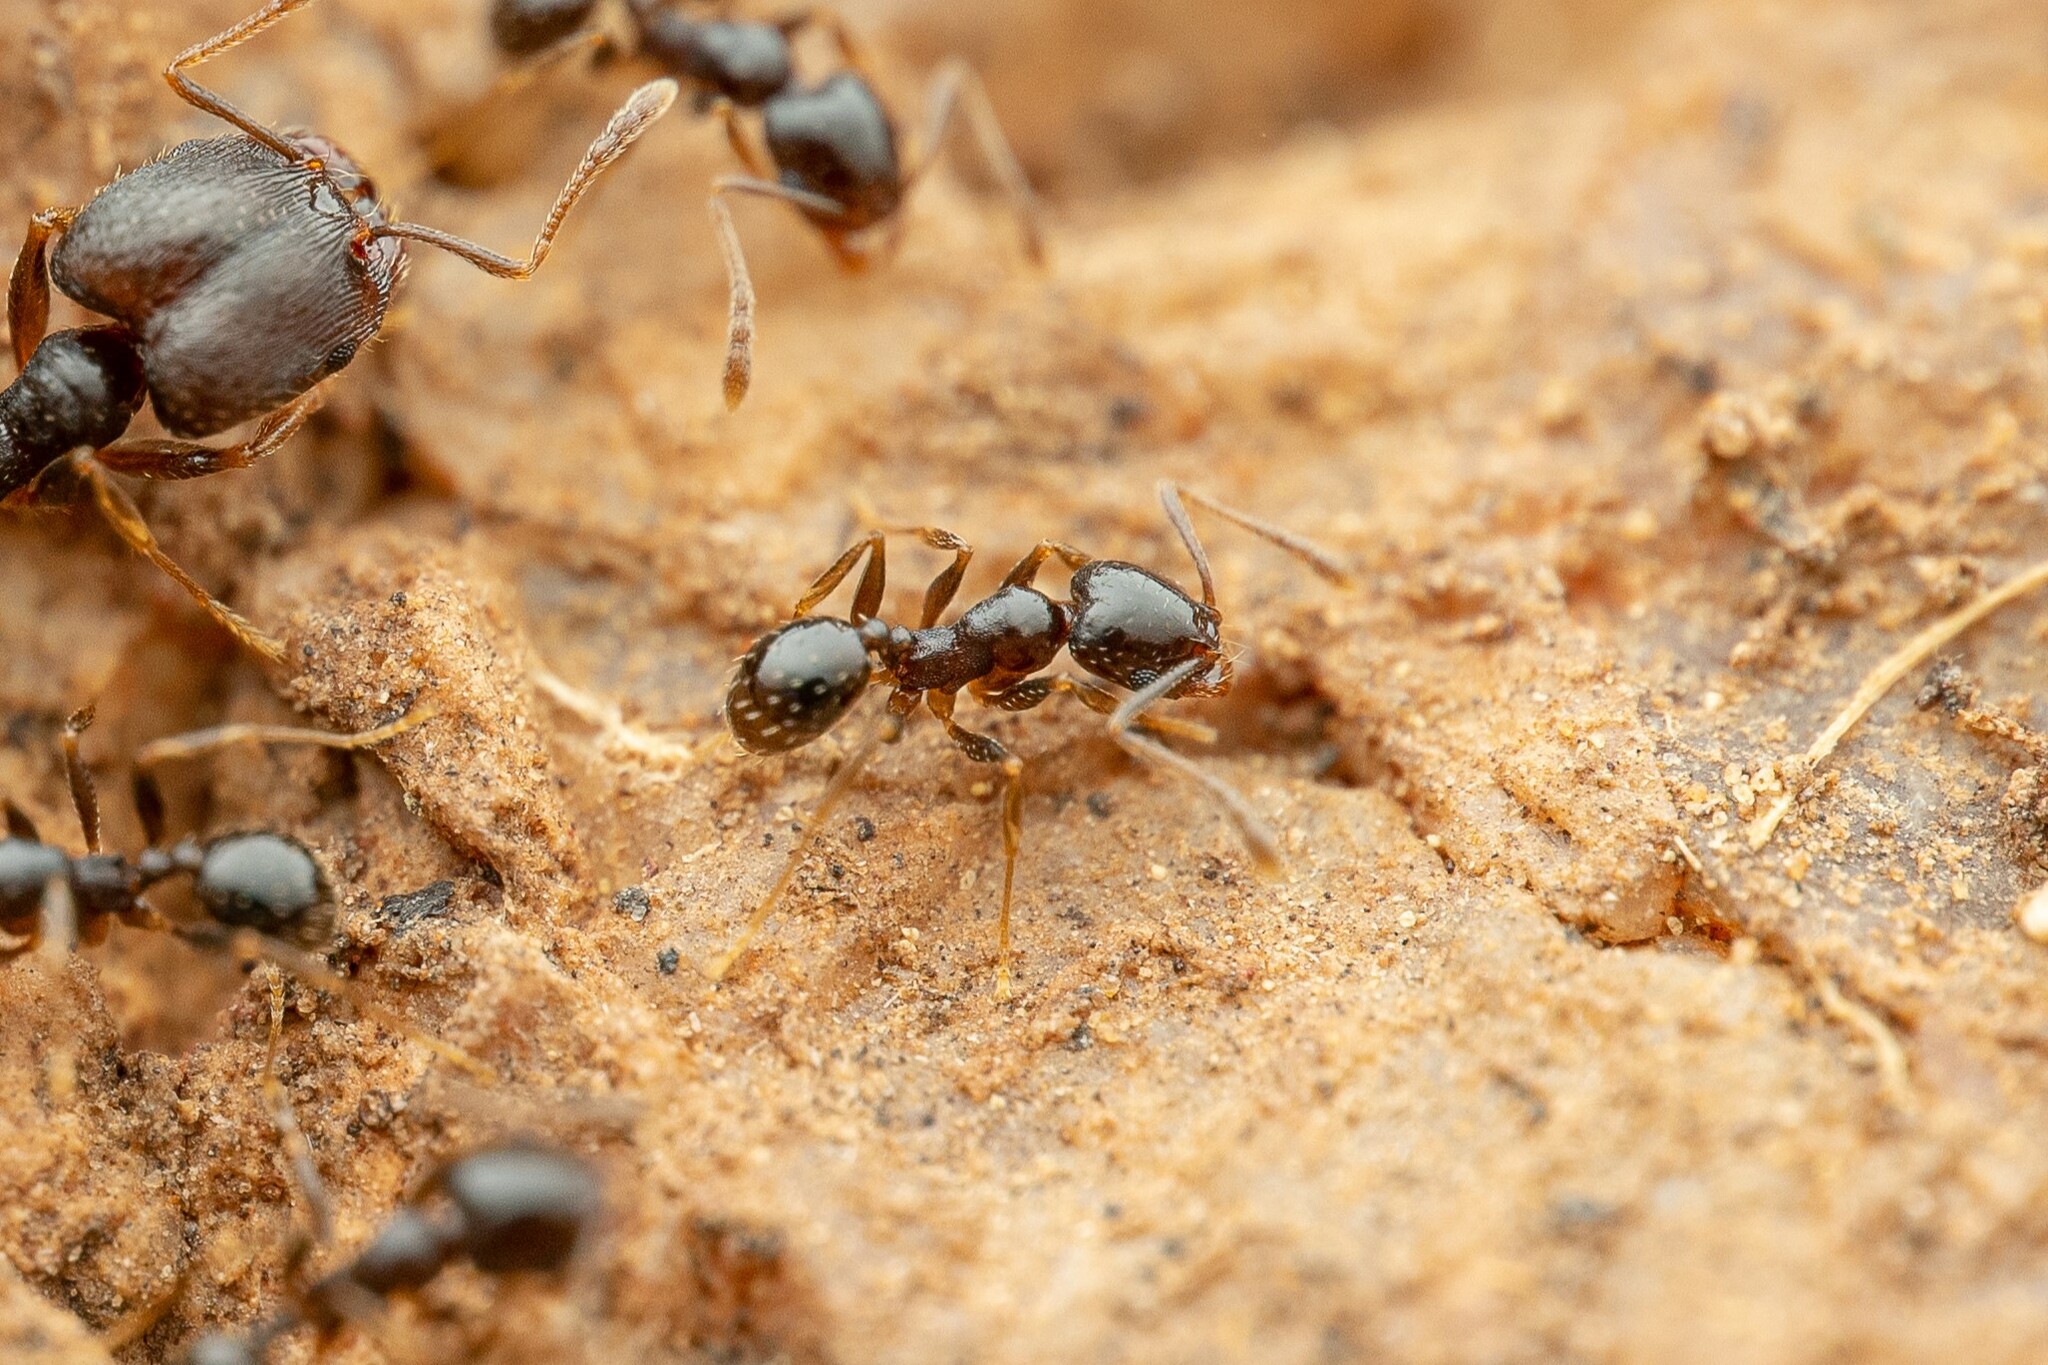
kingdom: Animalia
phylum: Arthropoda
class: Insecta
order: Hymenoptera
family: Formicidae
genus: Pheidole
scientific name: Pheidole
